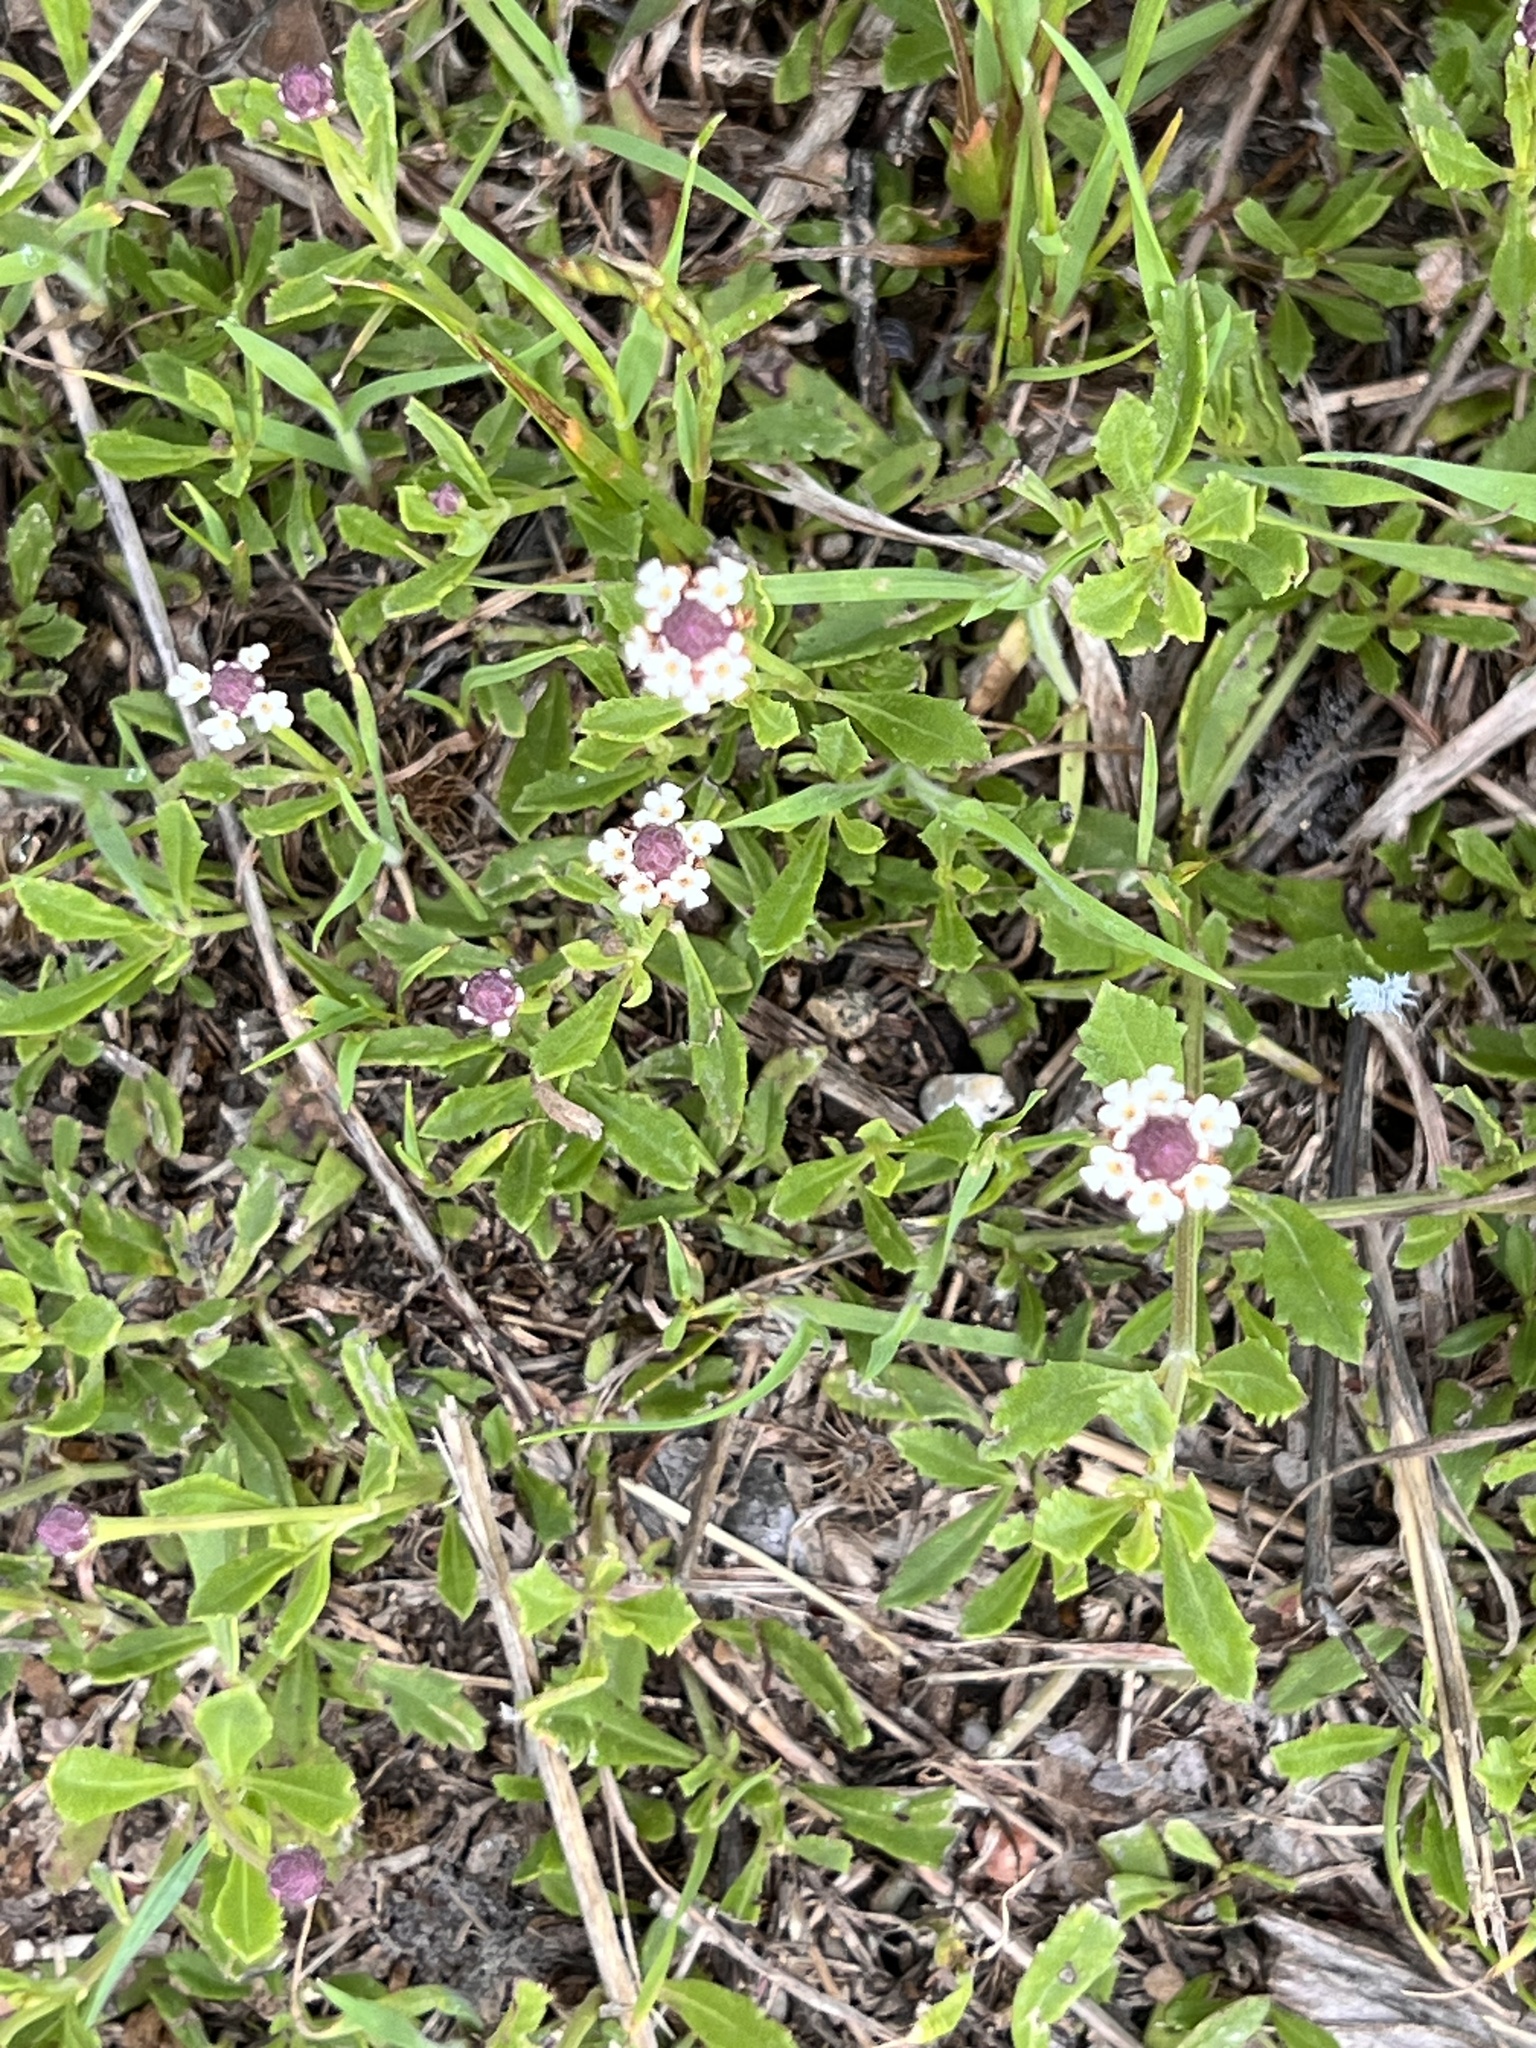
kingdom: Plantae
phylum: Tracheophyta
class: Magnoliopsida
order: Lamiales
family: Verbenaceae
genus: Phyla
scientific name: Phyla nodiflora
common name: Frogfruit
